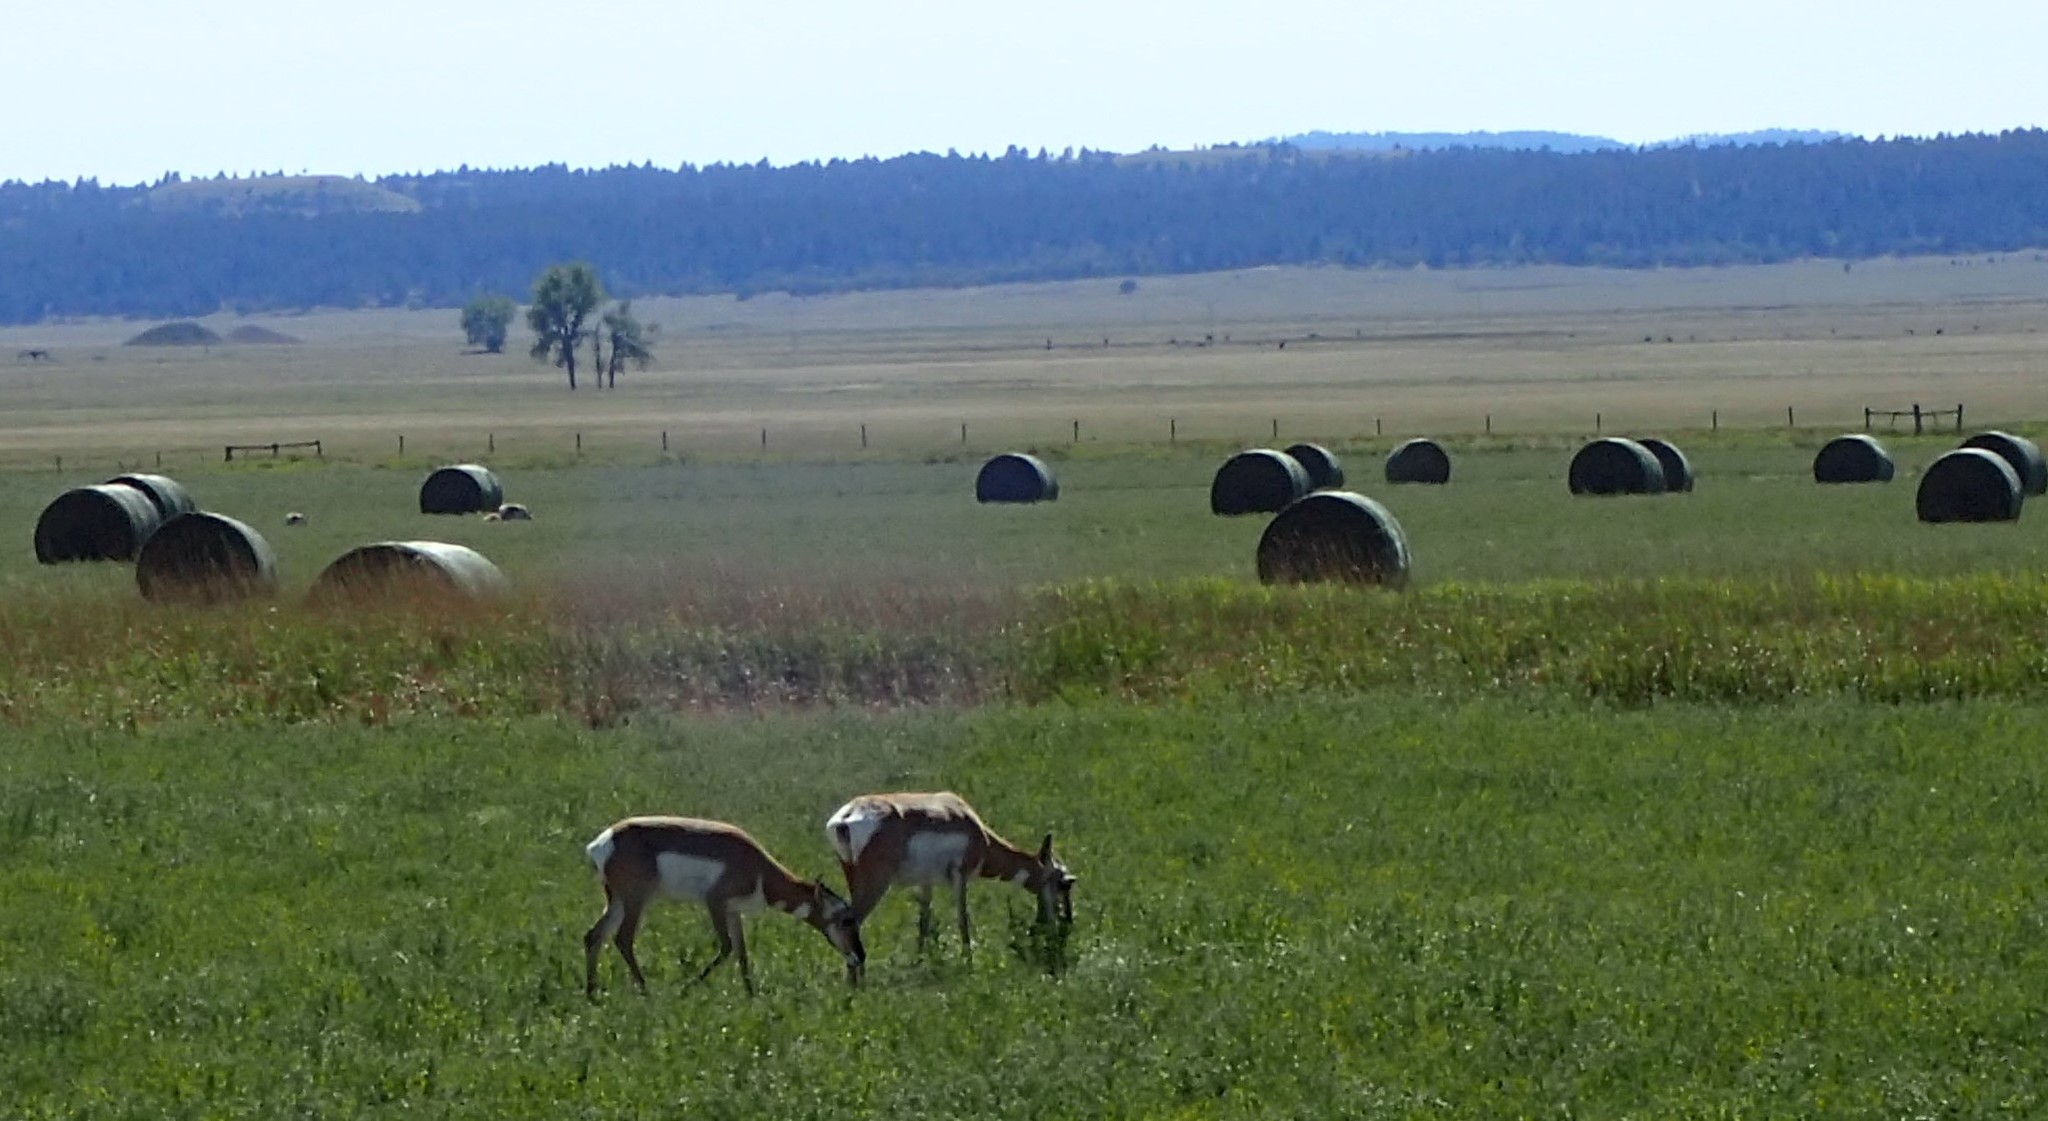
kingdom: Animalia
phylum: Chordata
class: Mammalia
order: Artiodactyla
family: Antilocapridae
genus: Antilocapra
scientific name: Antilocapra americana
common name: Pronghorn
